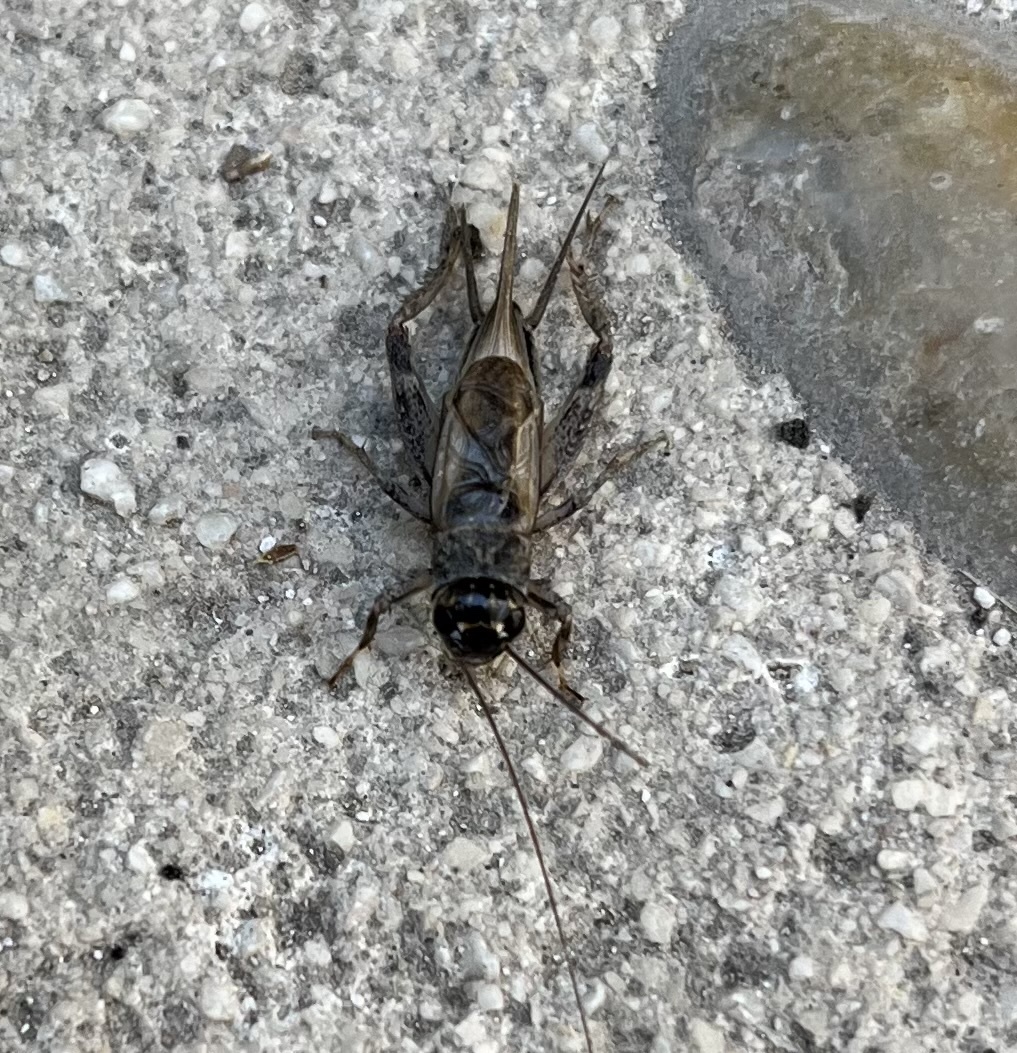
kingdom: Animalia
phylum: Arthropoda
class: Insecta
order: Orthoptera
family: Gryllidae
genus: Eumodicogryllus
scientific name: Eumodicogryllus bordigalensis
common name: Bordeaux cricket
